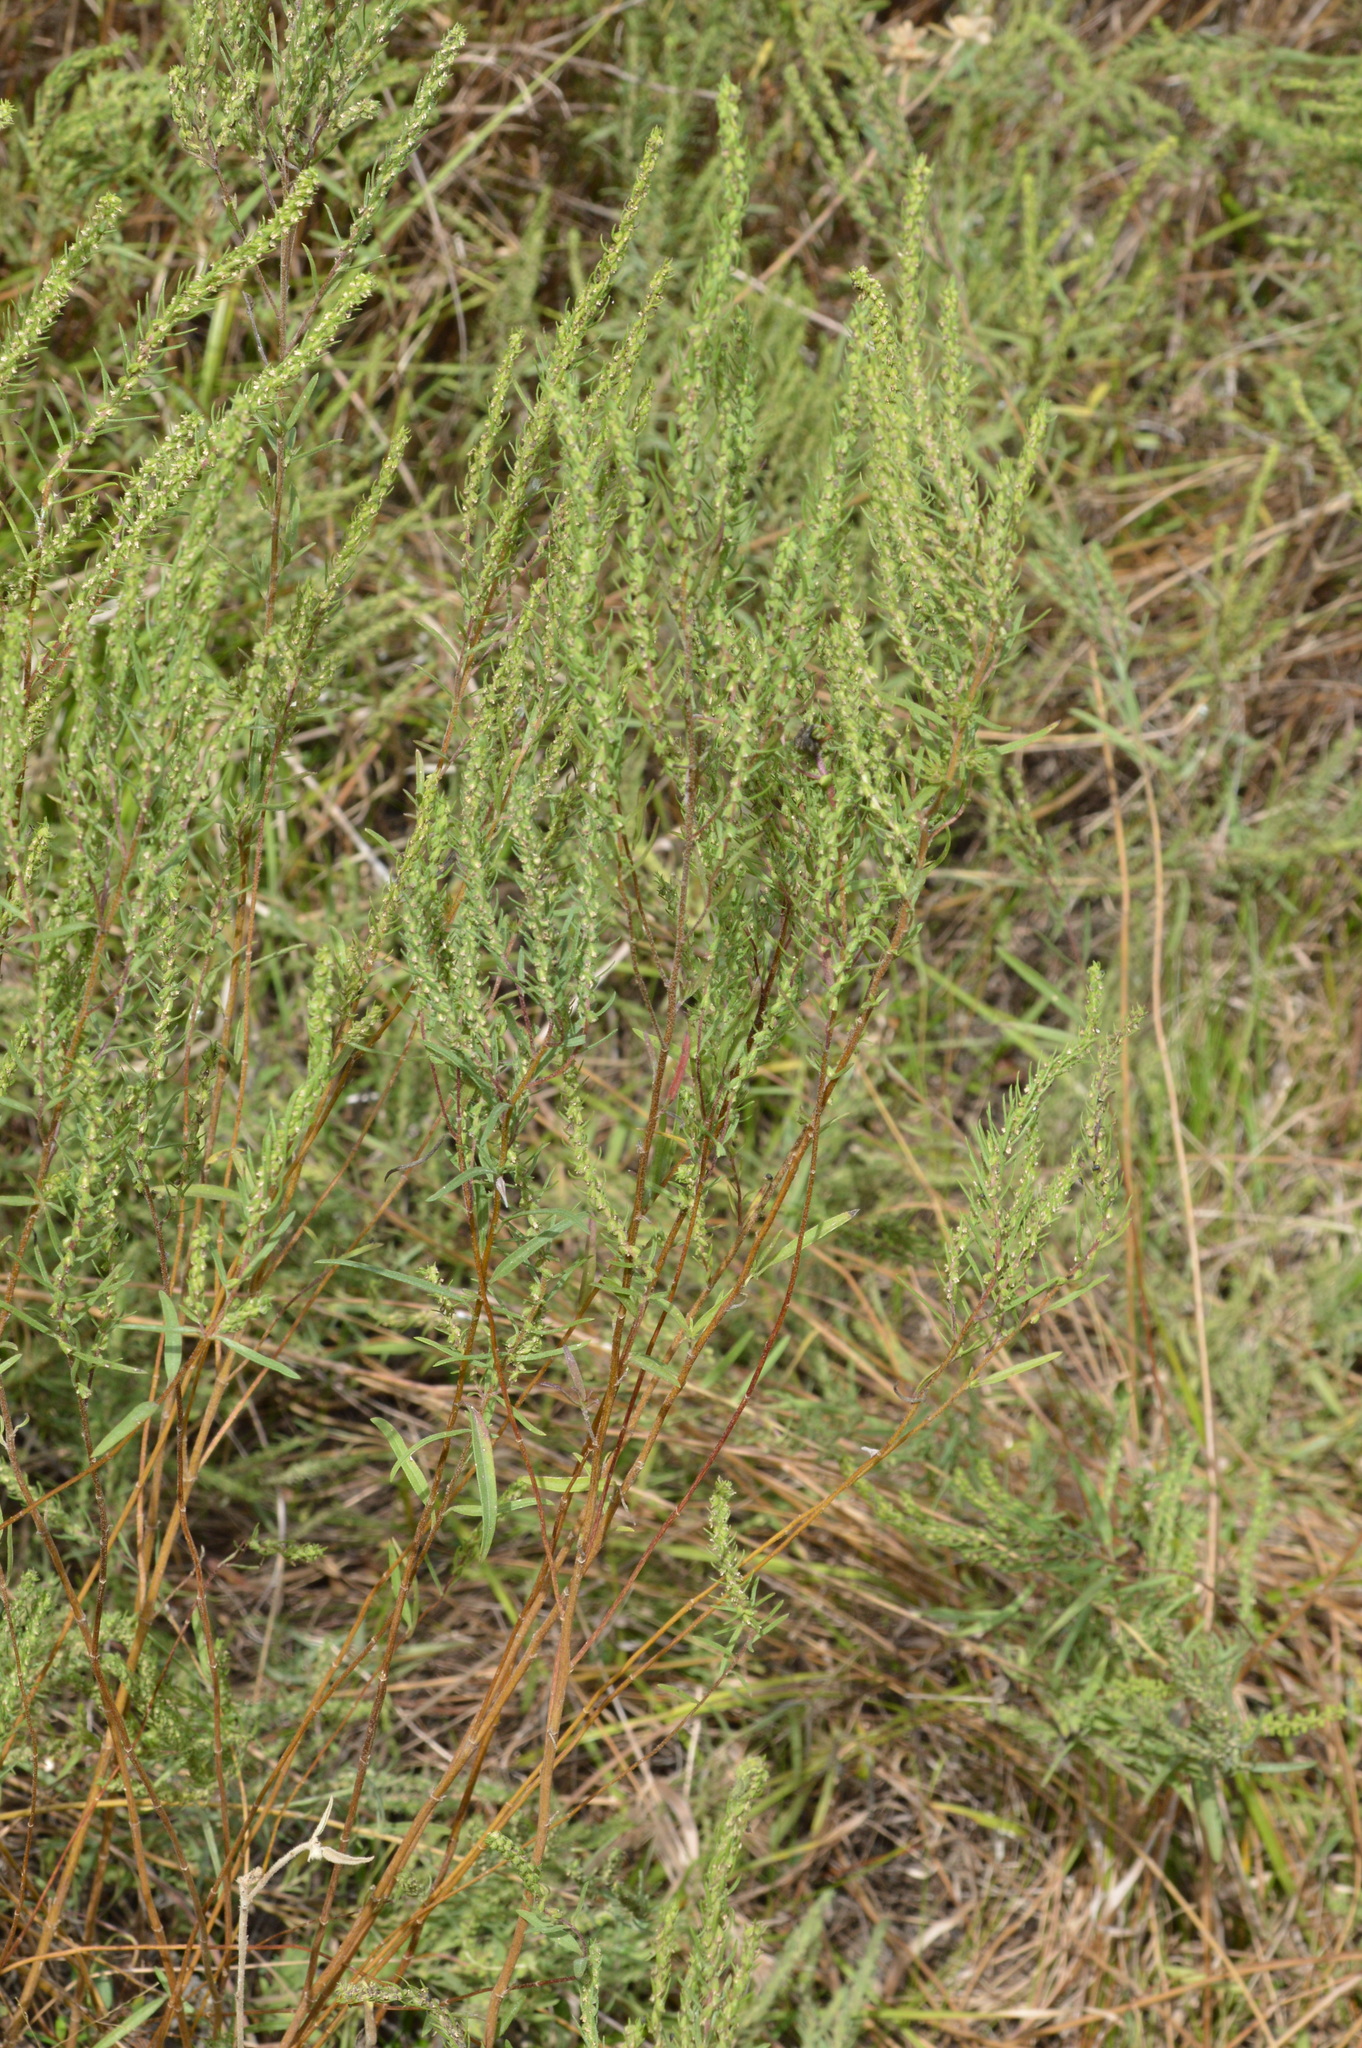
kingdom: Plantae
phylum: Tracheophyta
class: Magnoliopsida
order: Asterales
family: Asteraceae
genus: Iva
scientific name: Iva asperifolia
